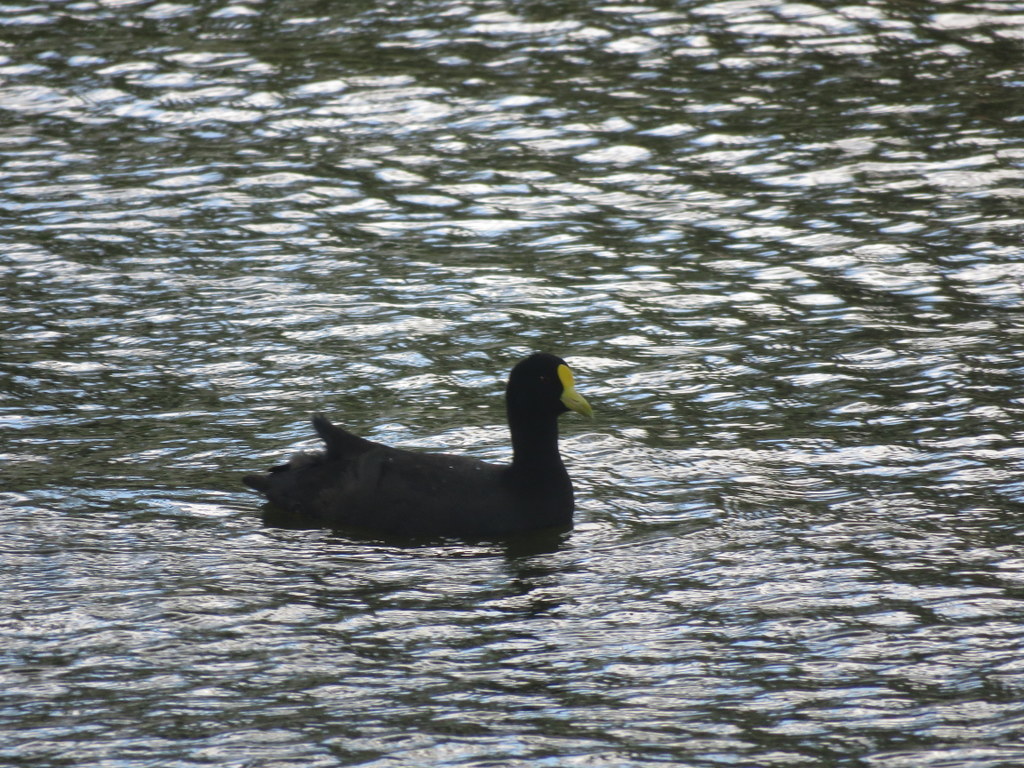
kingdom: Animalia
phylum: Chordata
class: Aves
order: Gruiformes
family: Rallidae
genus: Fulica
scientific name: Fulica leucoptera
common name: White-winged coot
